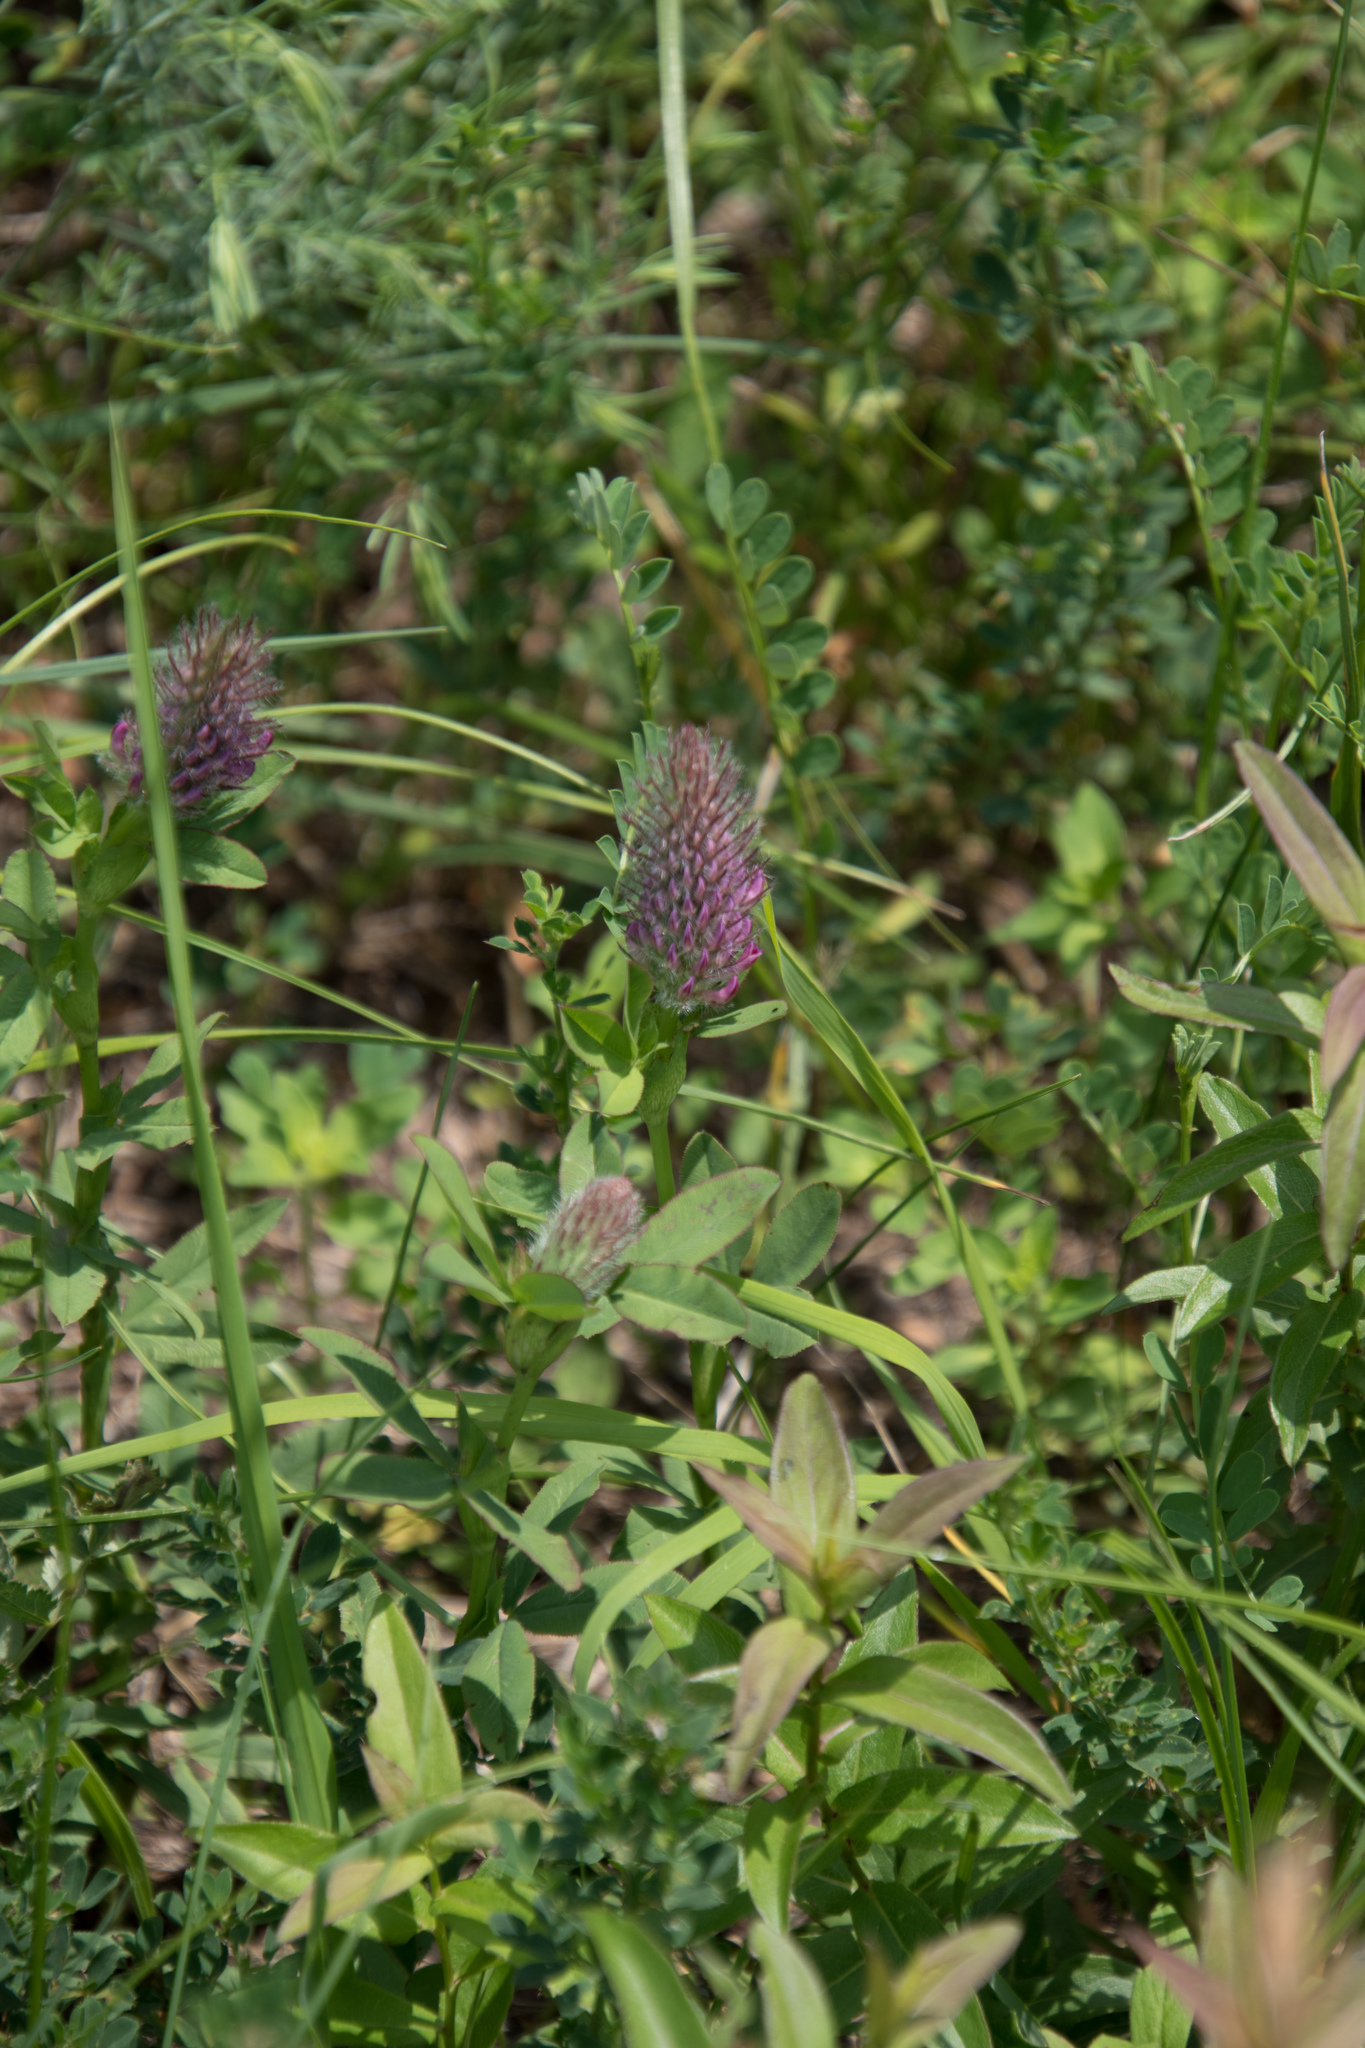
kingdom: Plantae
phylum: Tracheophyta
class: Magnoliopsida
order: Fabales
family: Fabaceae
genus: Trifolium
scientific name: Trifolium rubens
